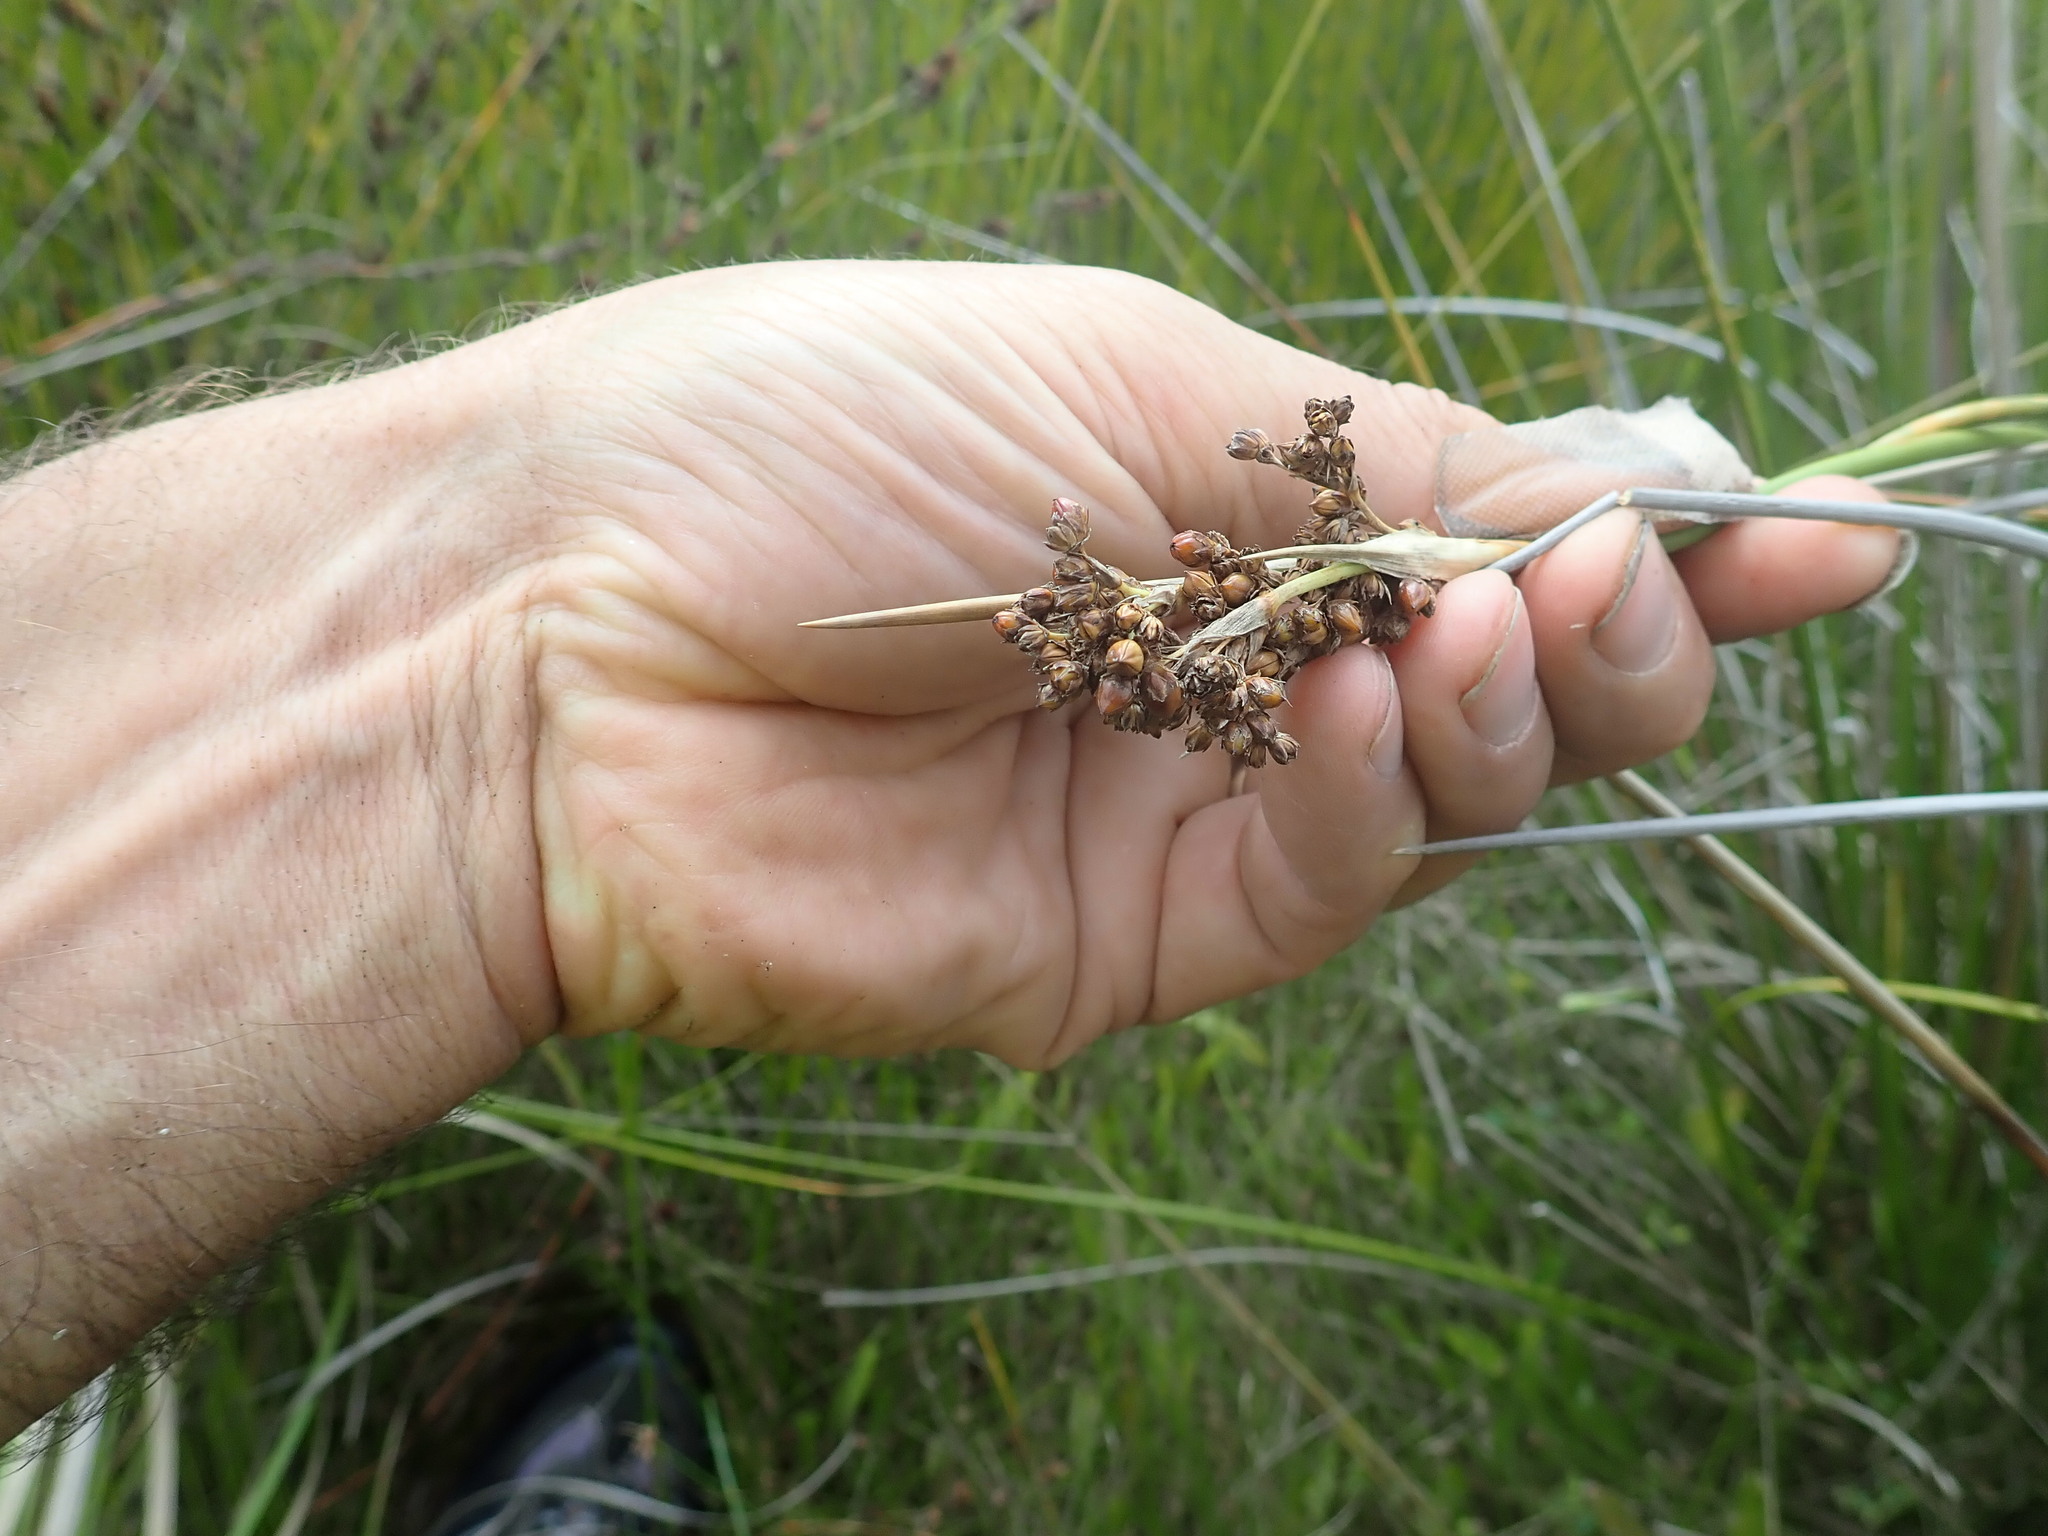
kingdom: Plantae
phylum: Tracheophyta
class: Liliopsida
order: Poales
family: Juncaceae
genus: Juncus
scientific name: Juncus acutus
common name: Sharp rush
